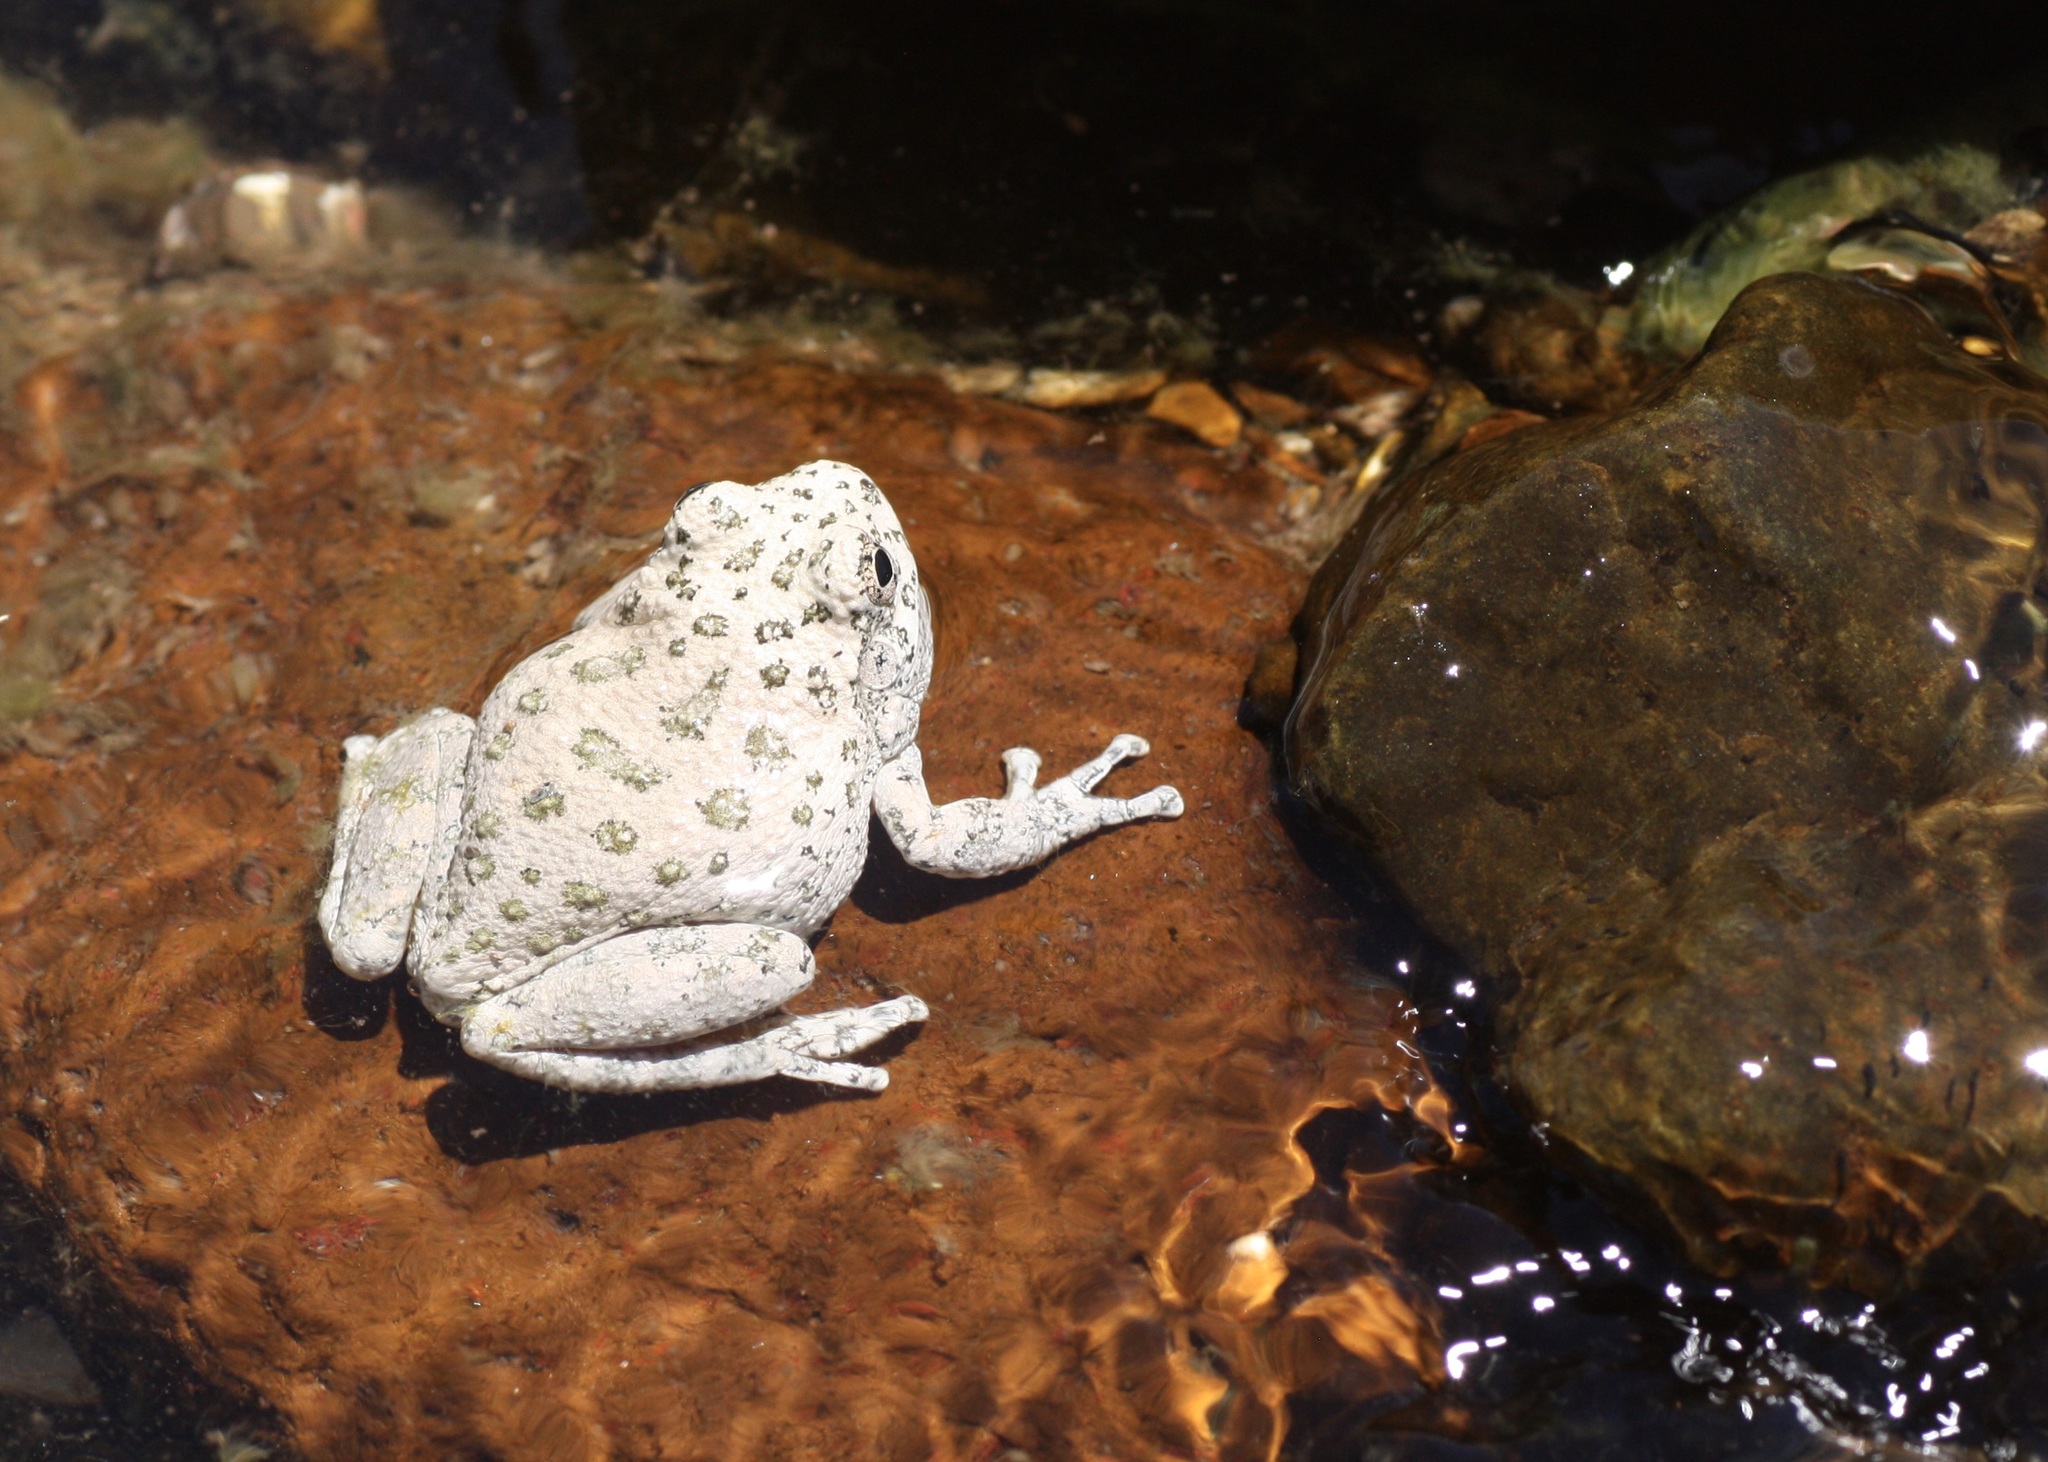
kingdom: Animalia
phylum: Chordata
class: Amphibia
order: Anura
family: Hylidae
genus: Dryophytes
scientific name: Dryophytes arenicolor
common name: Canyon treefrog
